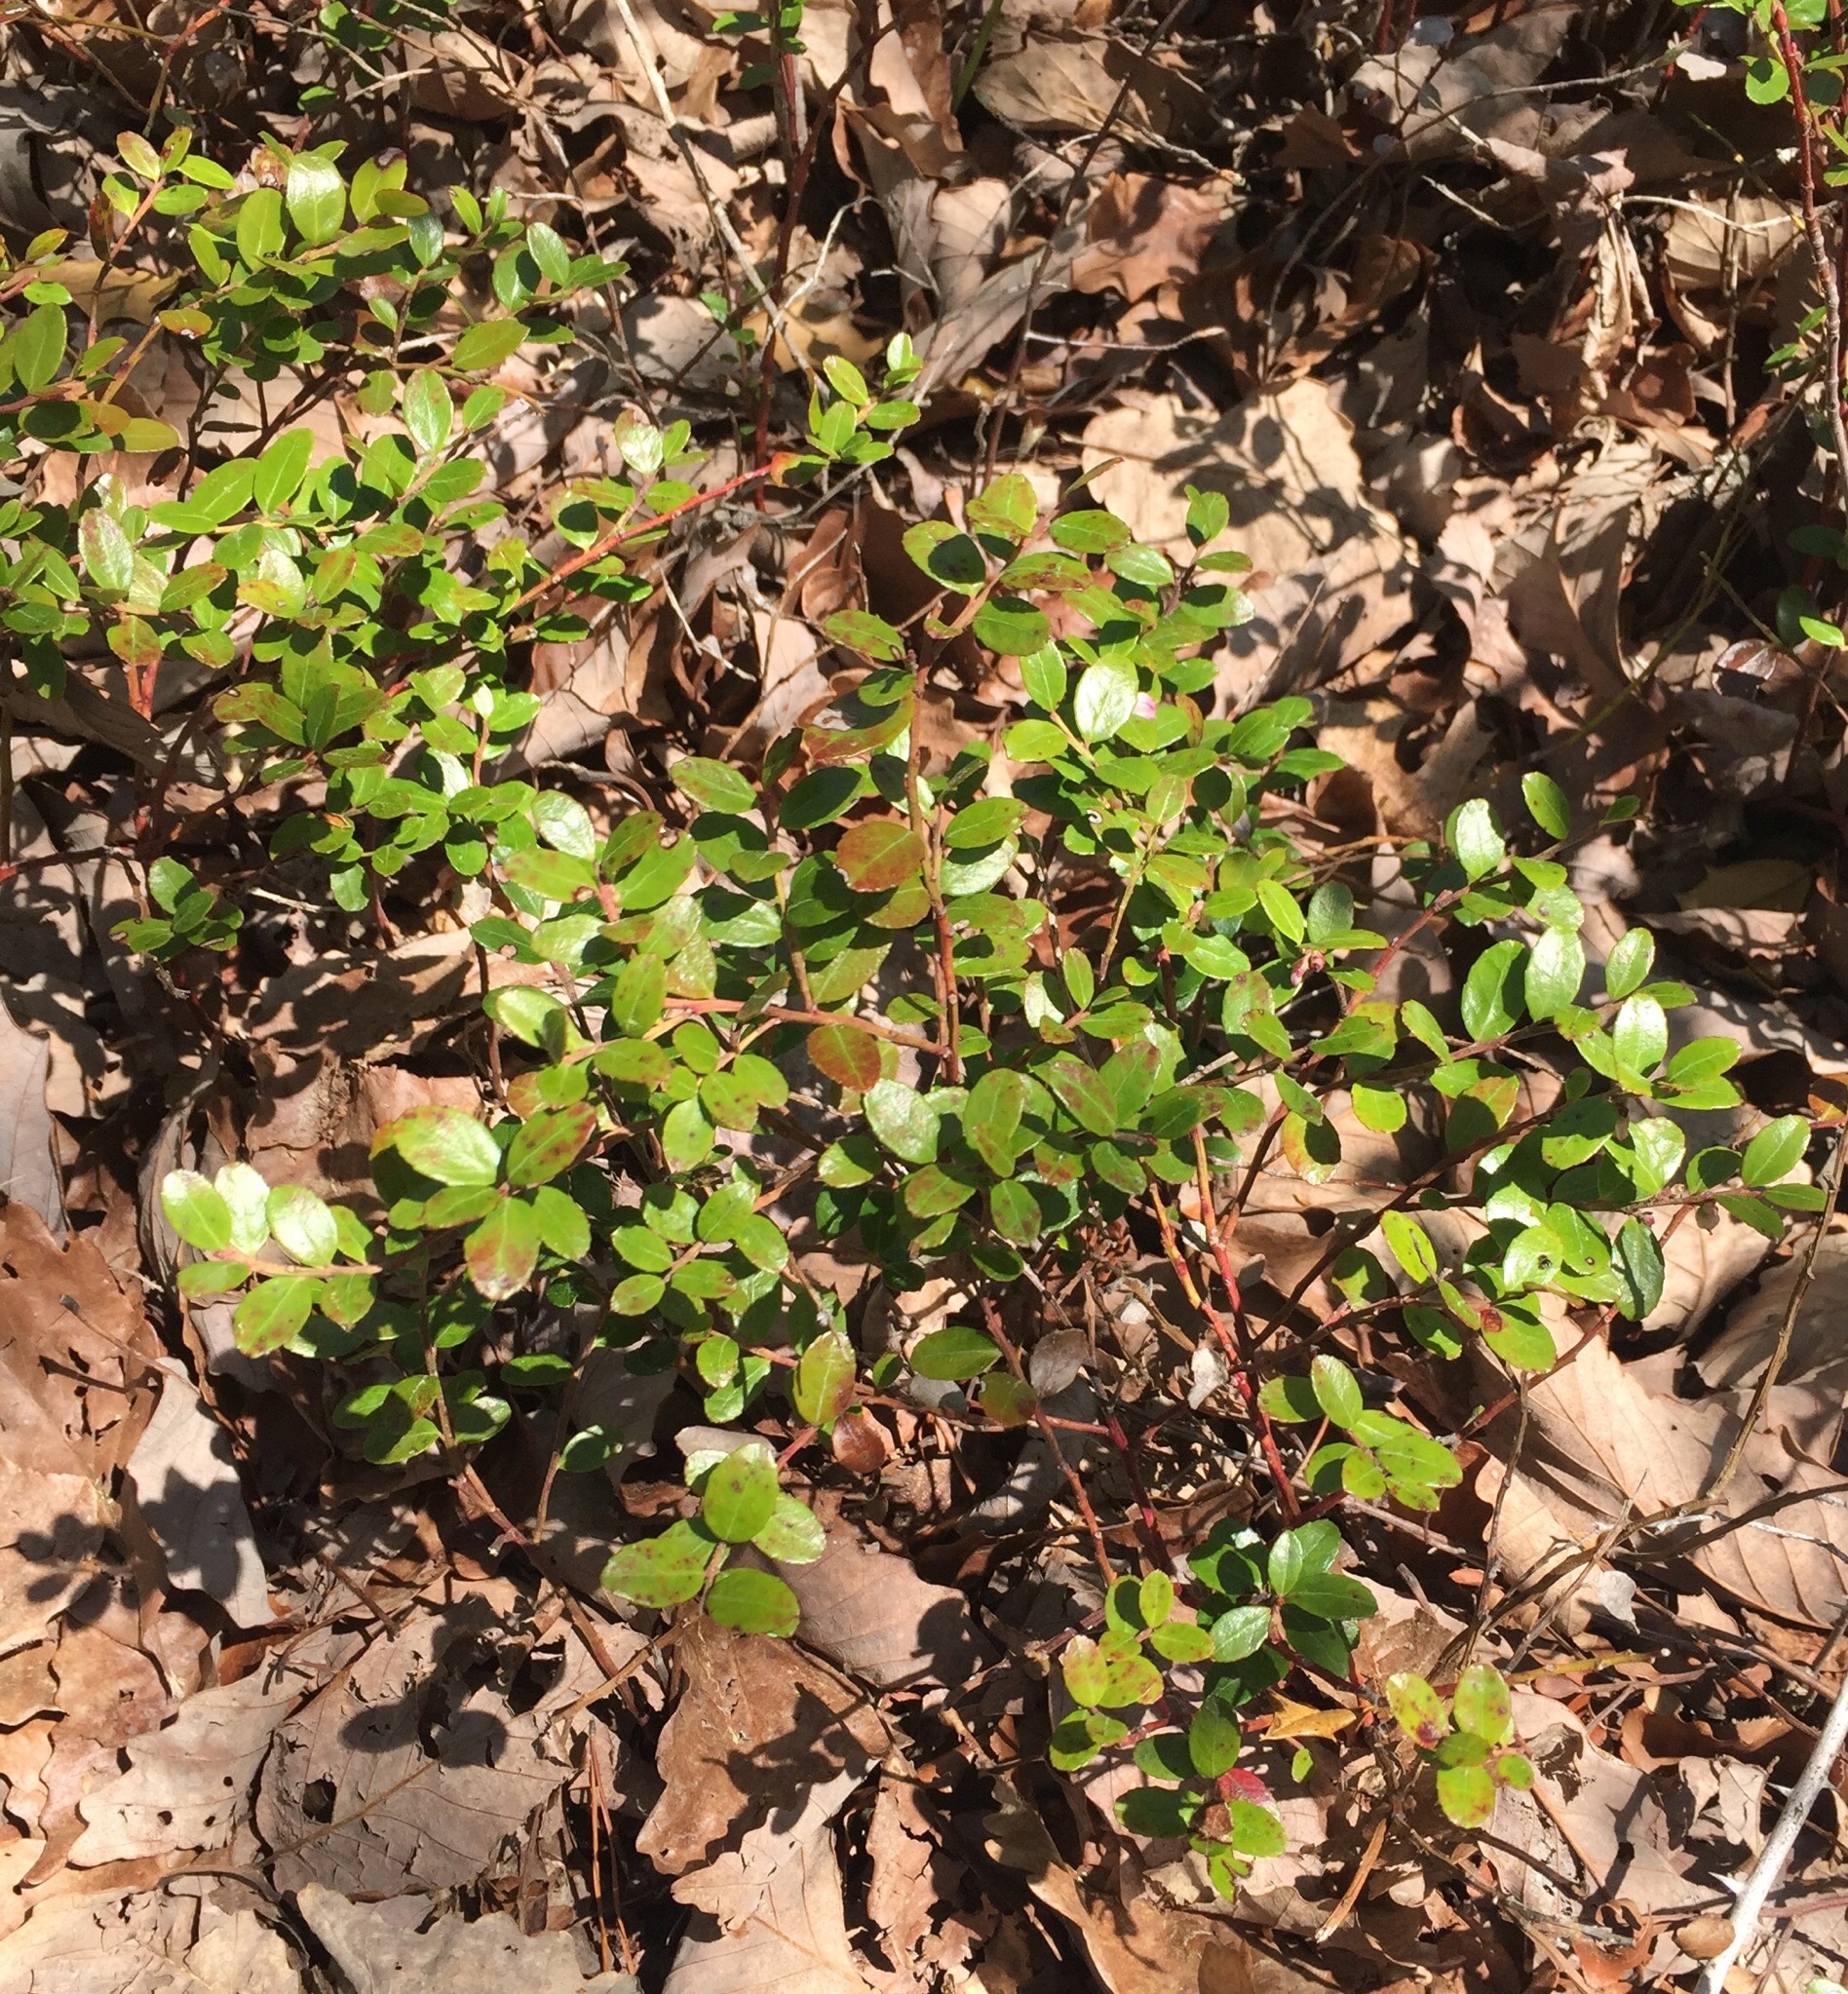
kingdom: Plantae
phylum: Tracheophyta
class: Magnoliopsida
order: Ericales
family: Ericaceae
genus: Gaylussacia
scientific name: Gaylussacia brachycera
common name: Box huckleberry
